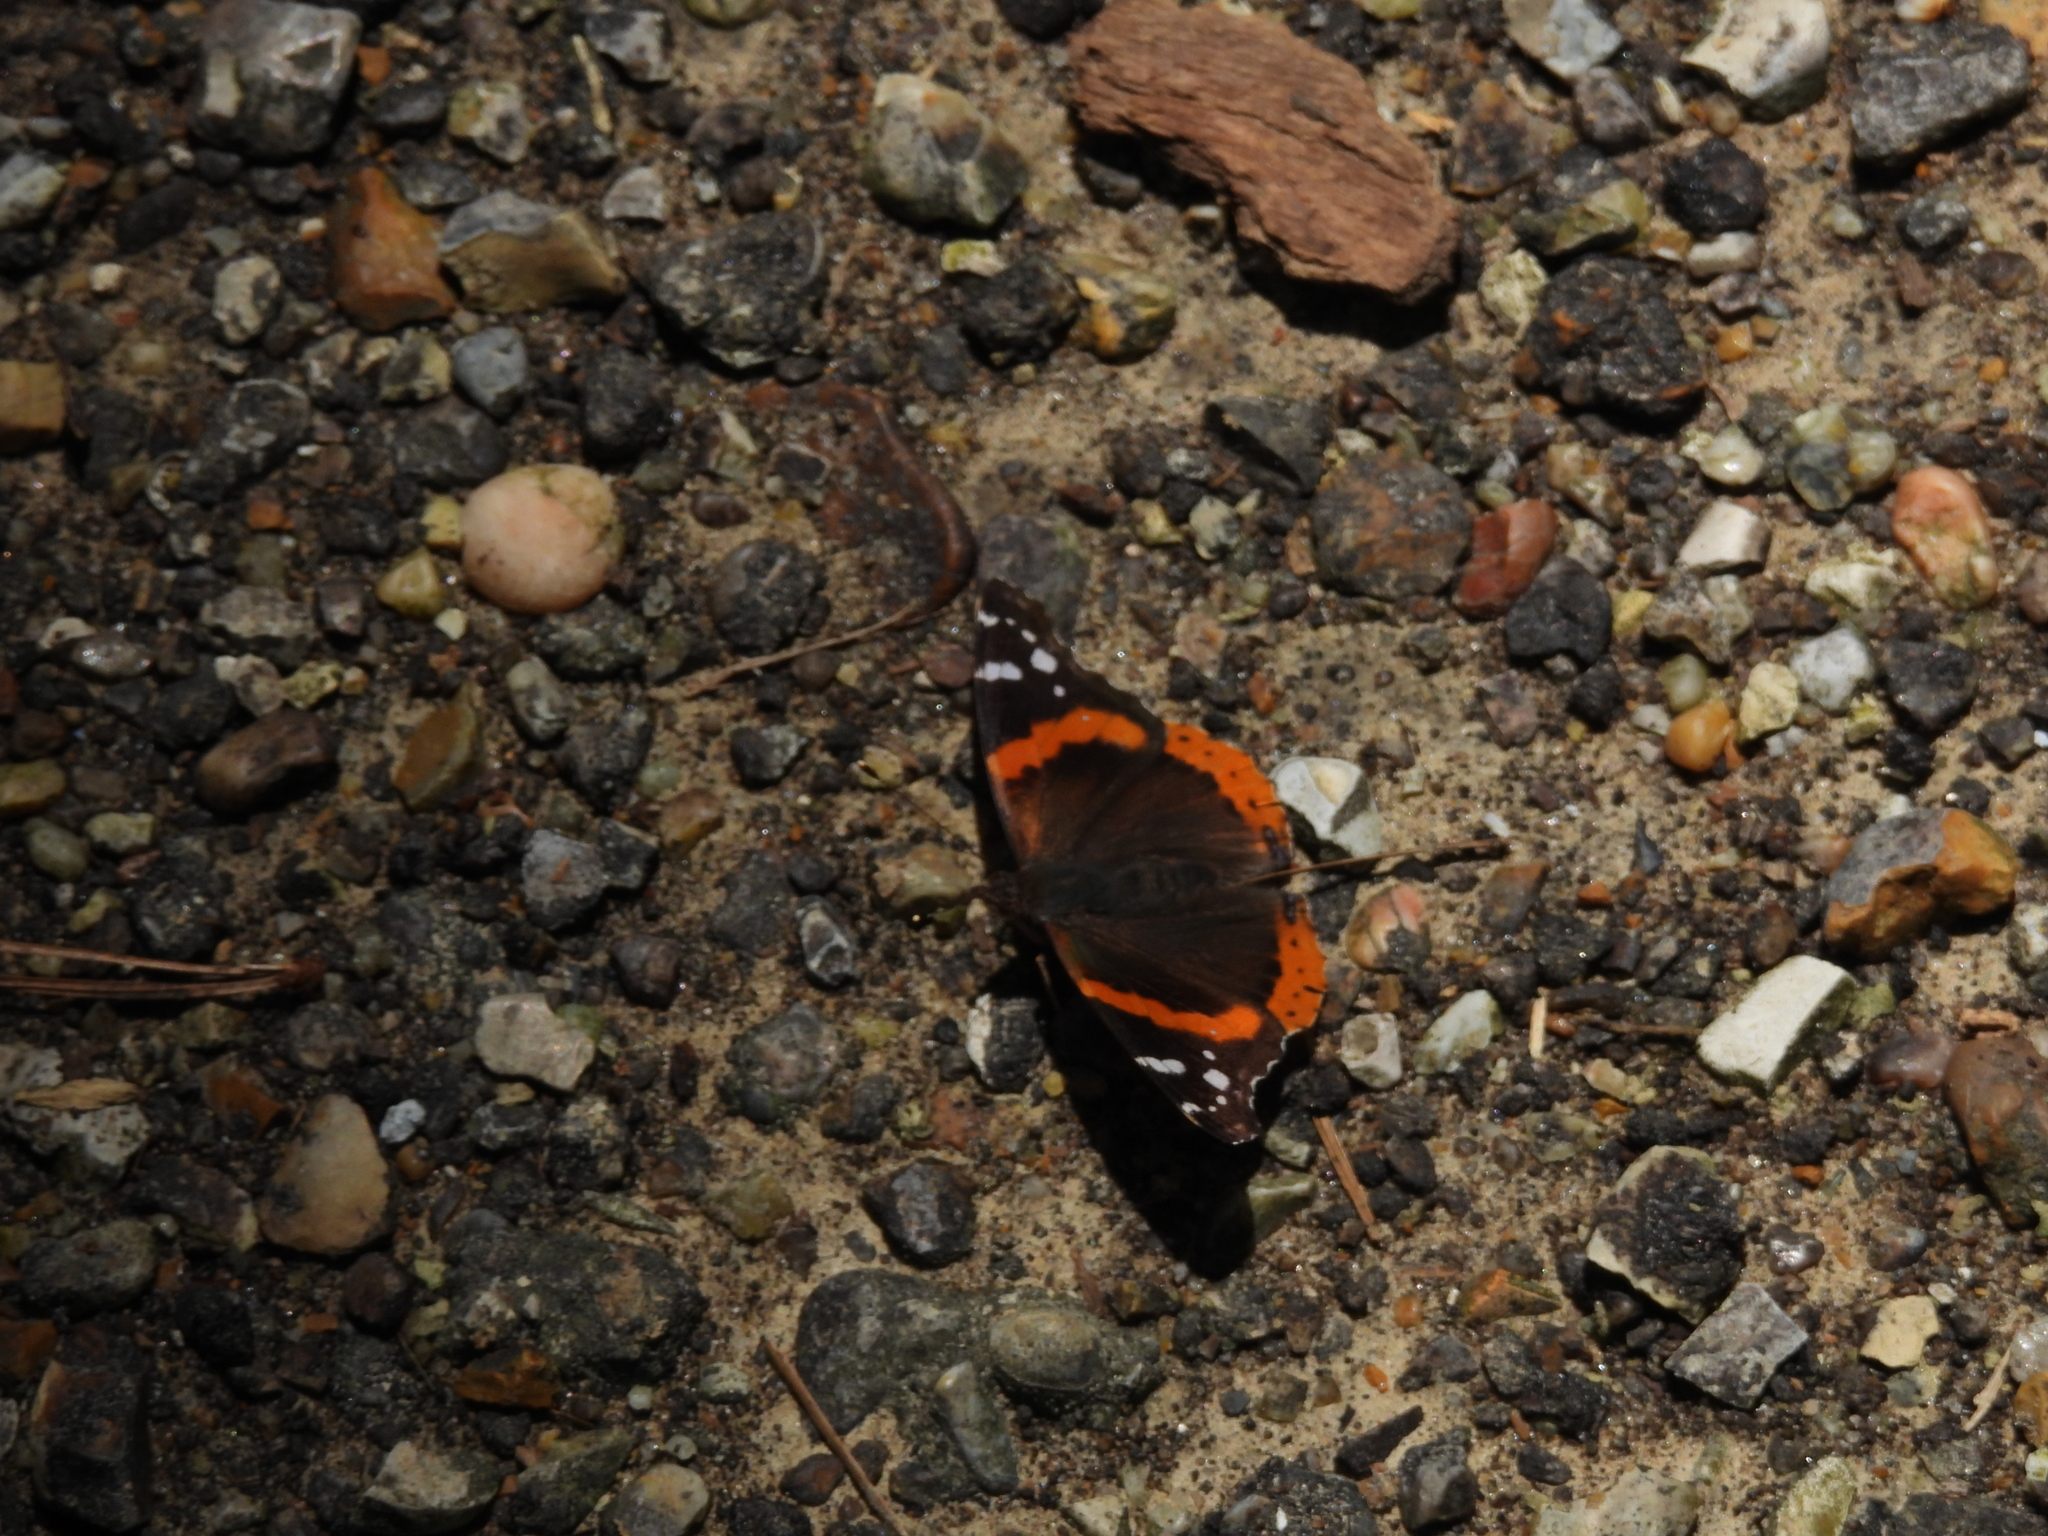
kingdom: Animalia
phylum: Arthropoda
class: Insecta
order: Lepidoptera
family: Nymphalidae
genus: Vanessa
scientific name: Vanessa atalanta
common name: Red admiral
